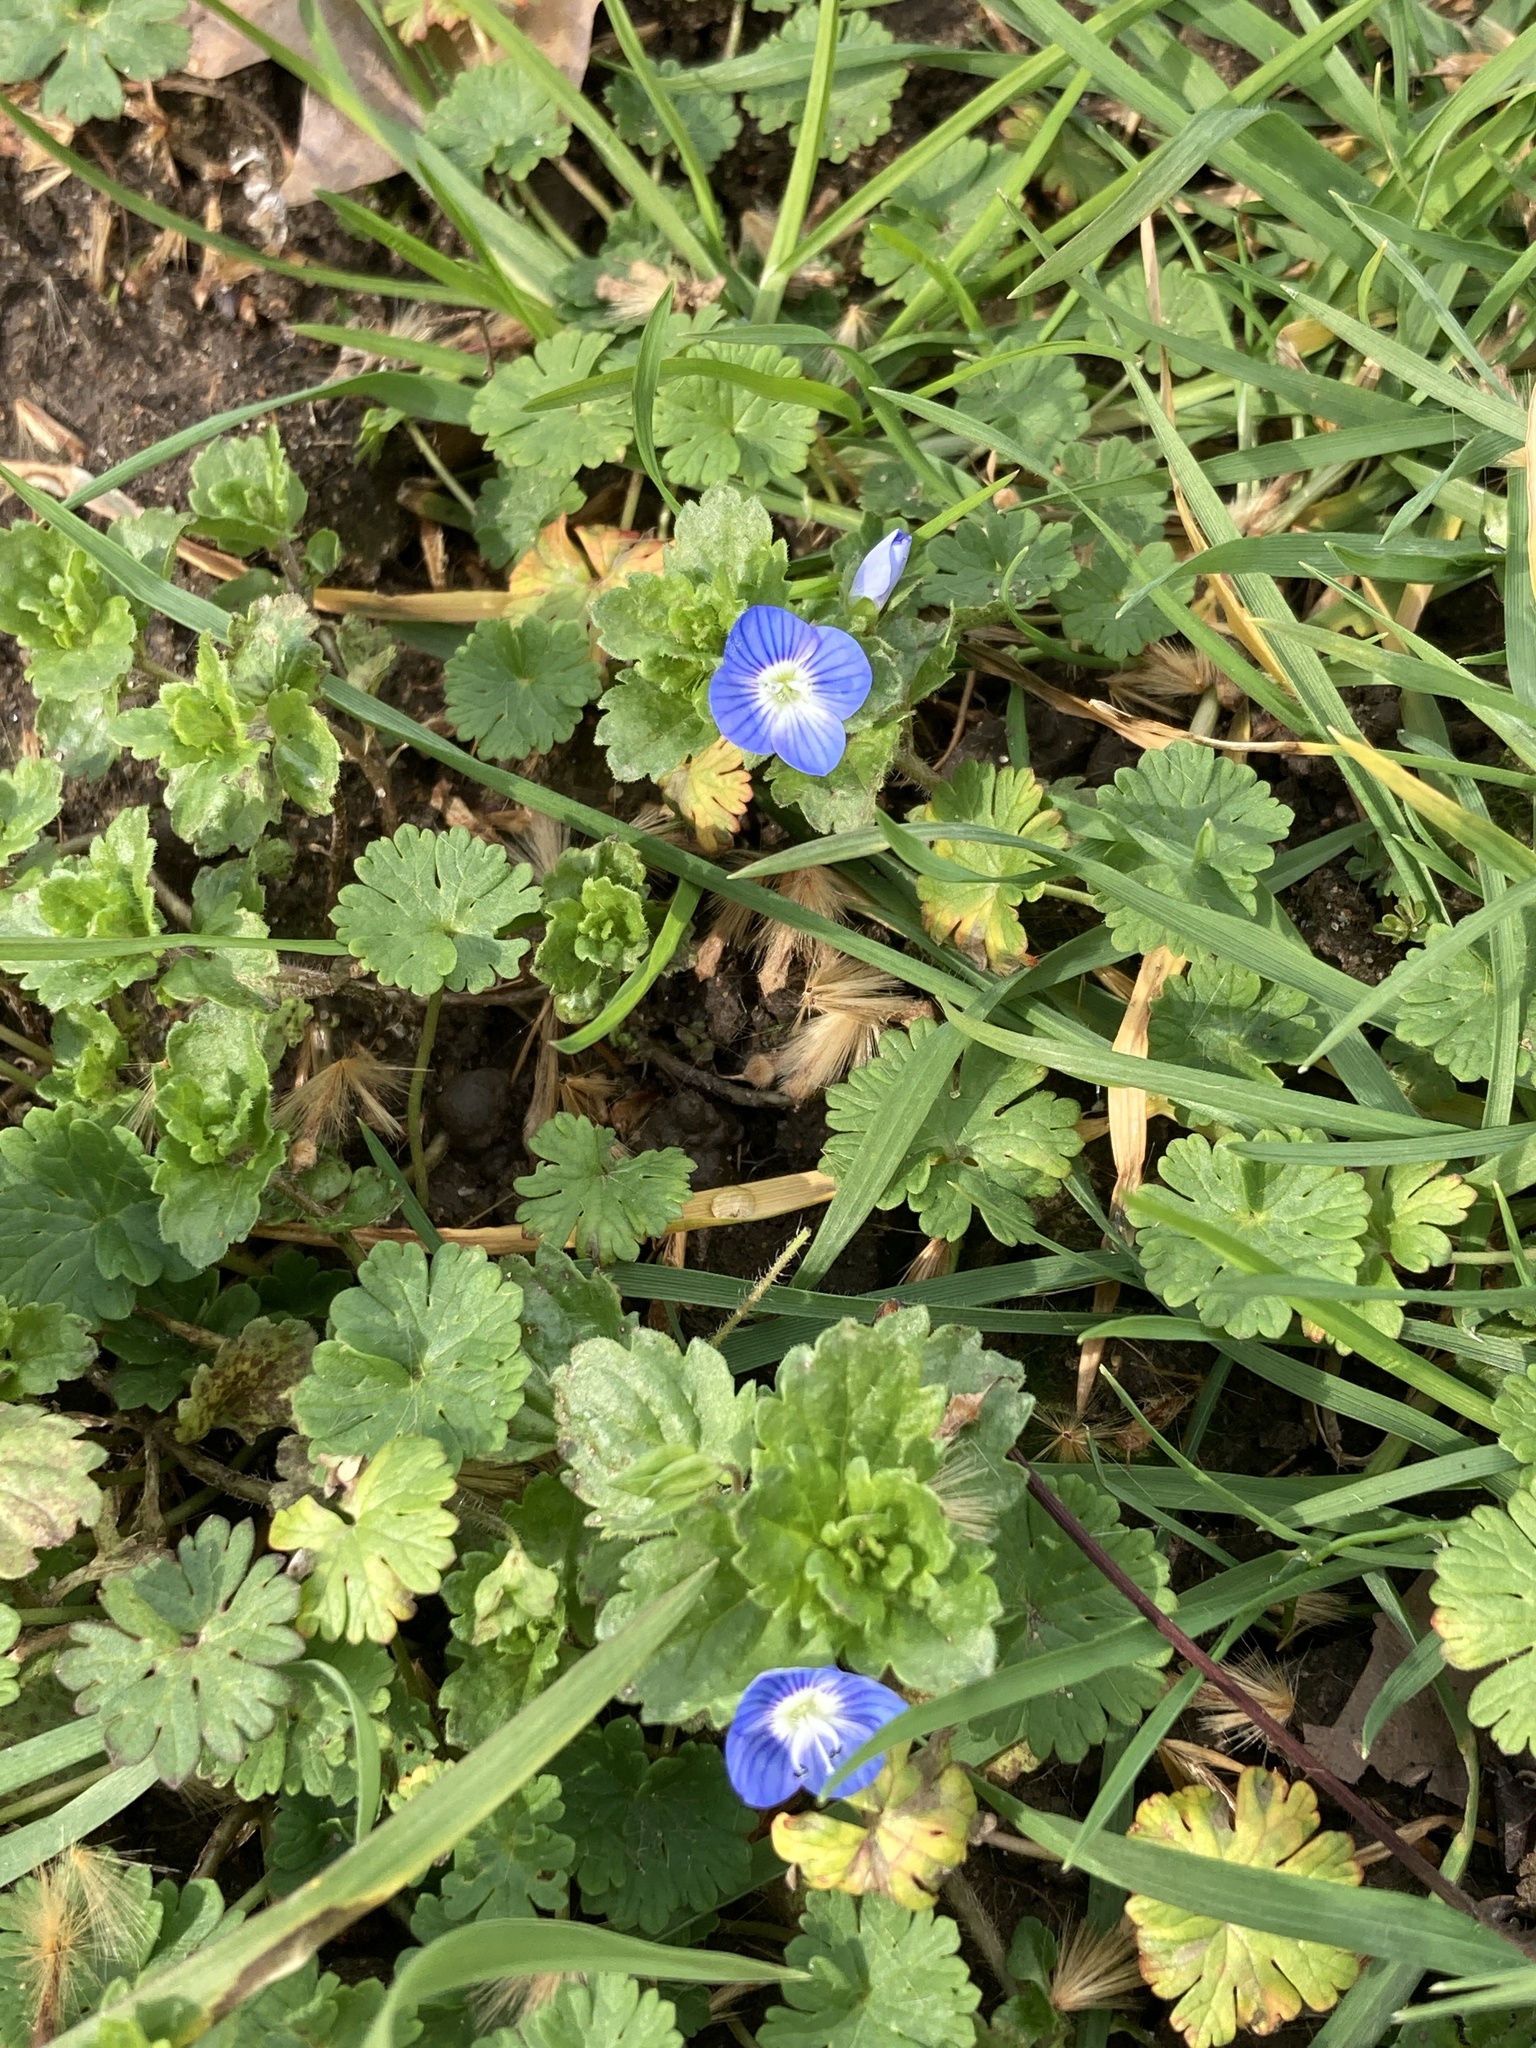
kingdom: Plantae
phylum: Tracheophyta
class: Magnoliopsida
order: Lamiales
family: Plantaginaceae
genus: Veronica
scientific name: Veronica persica
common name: Common field-speedwell
